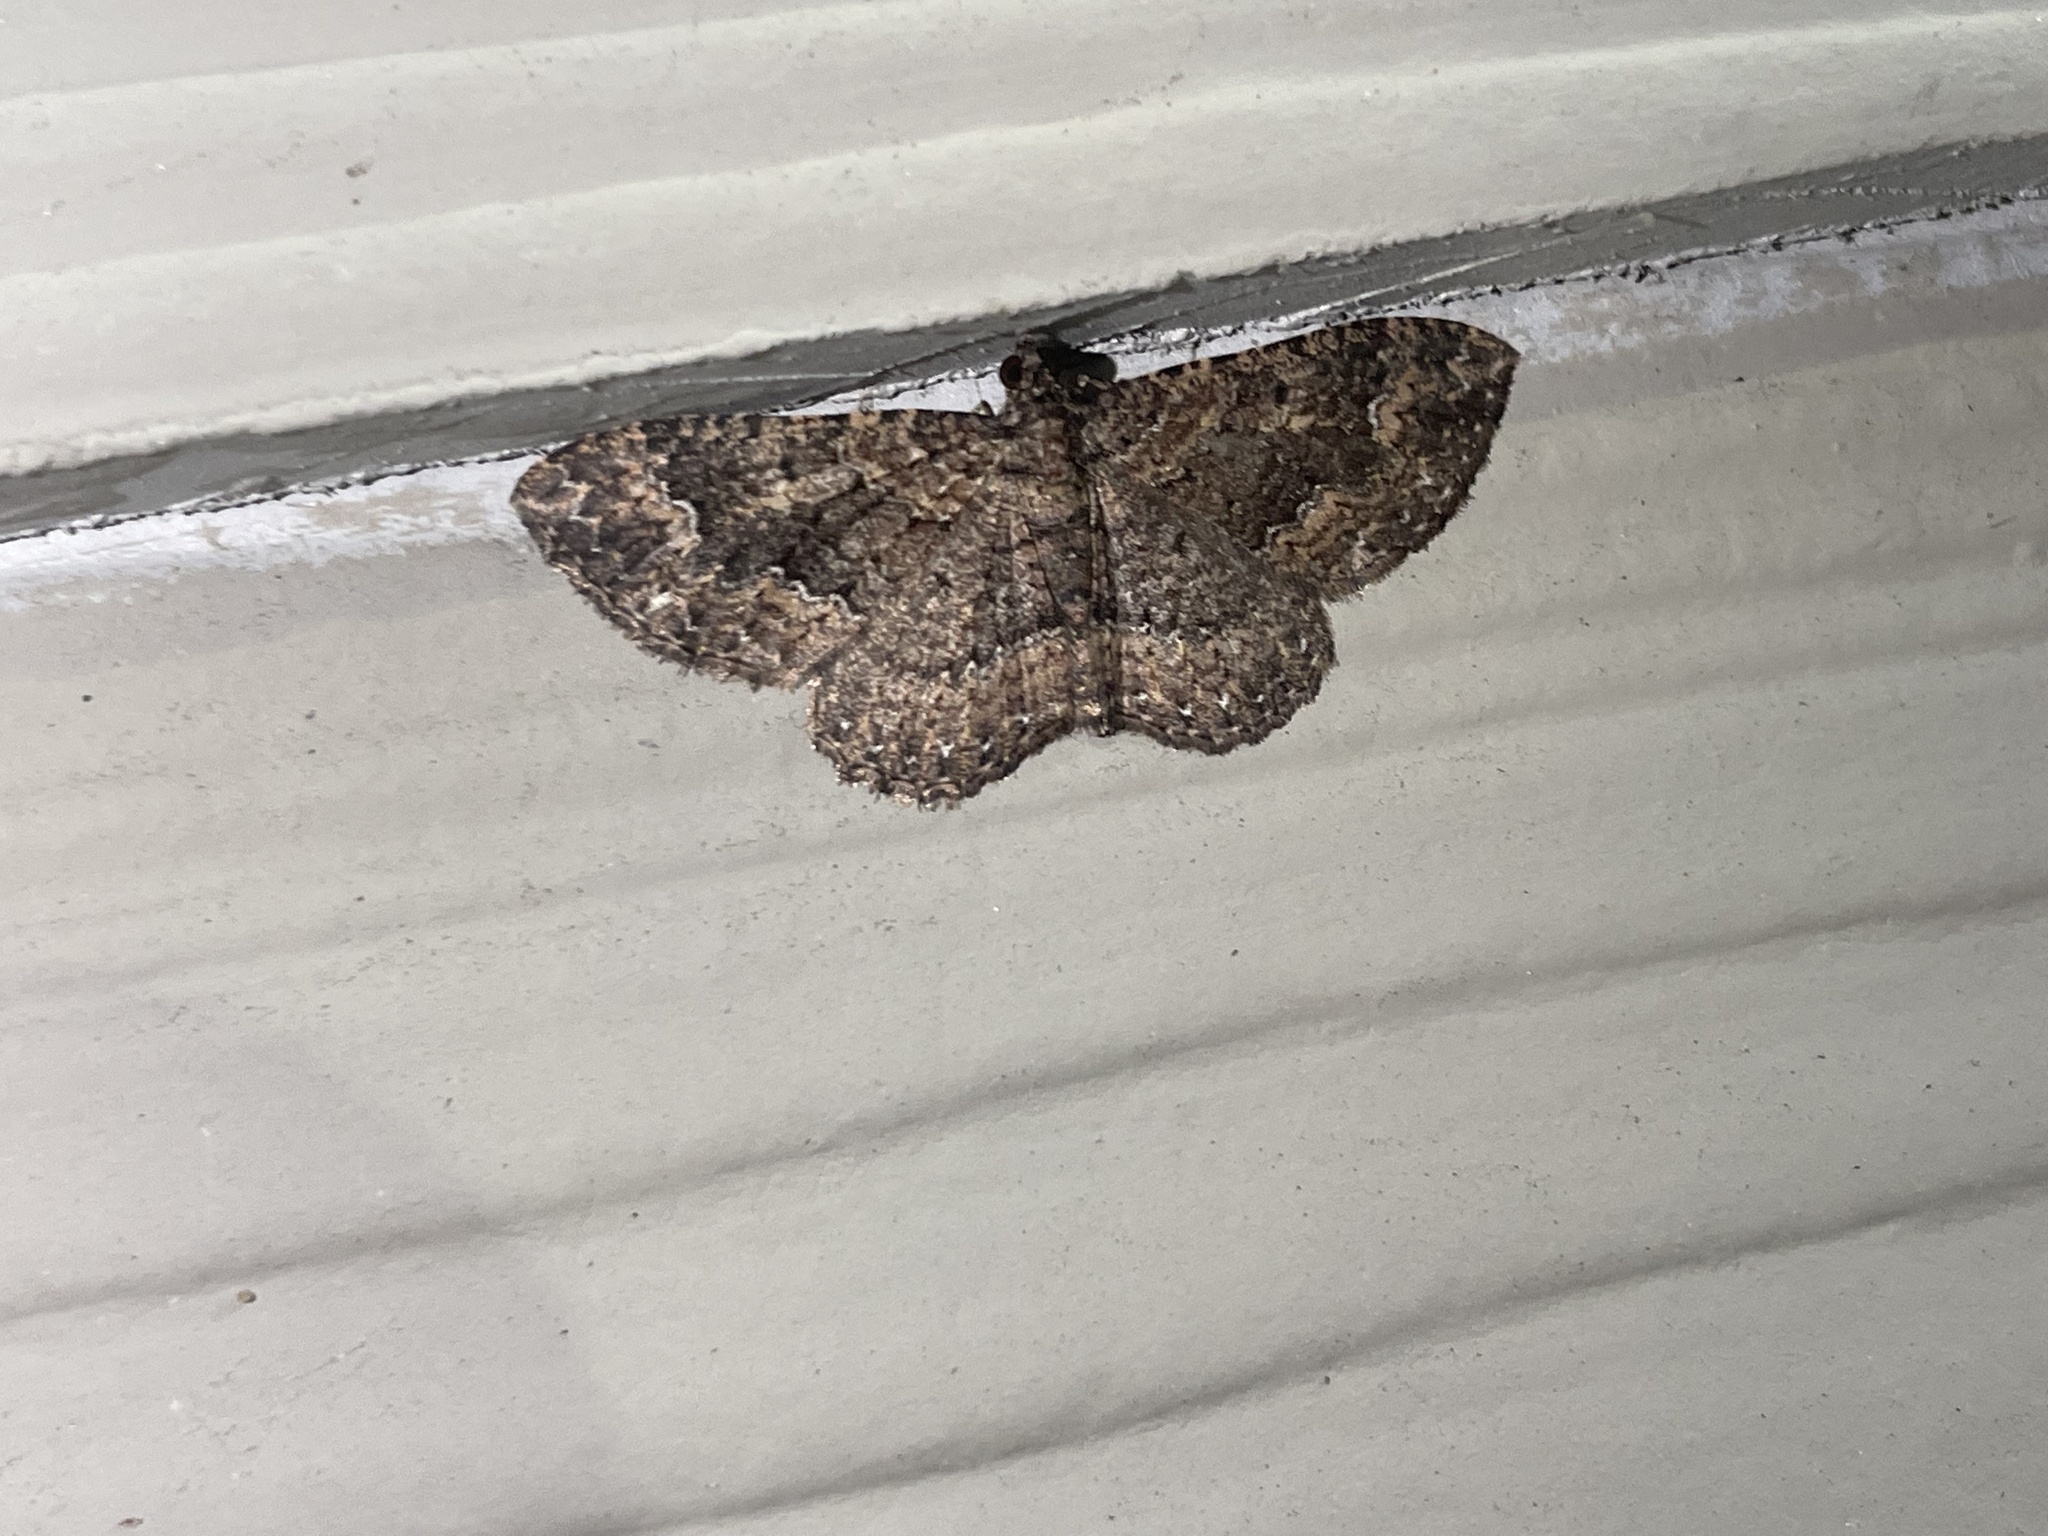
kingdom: Animalia
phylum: Arthropoda
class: Insecta
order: Lepidoptera
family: Geometridae
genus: Disclisioprocta
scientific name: Disclisioprocta stellata
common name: Somber carpet
